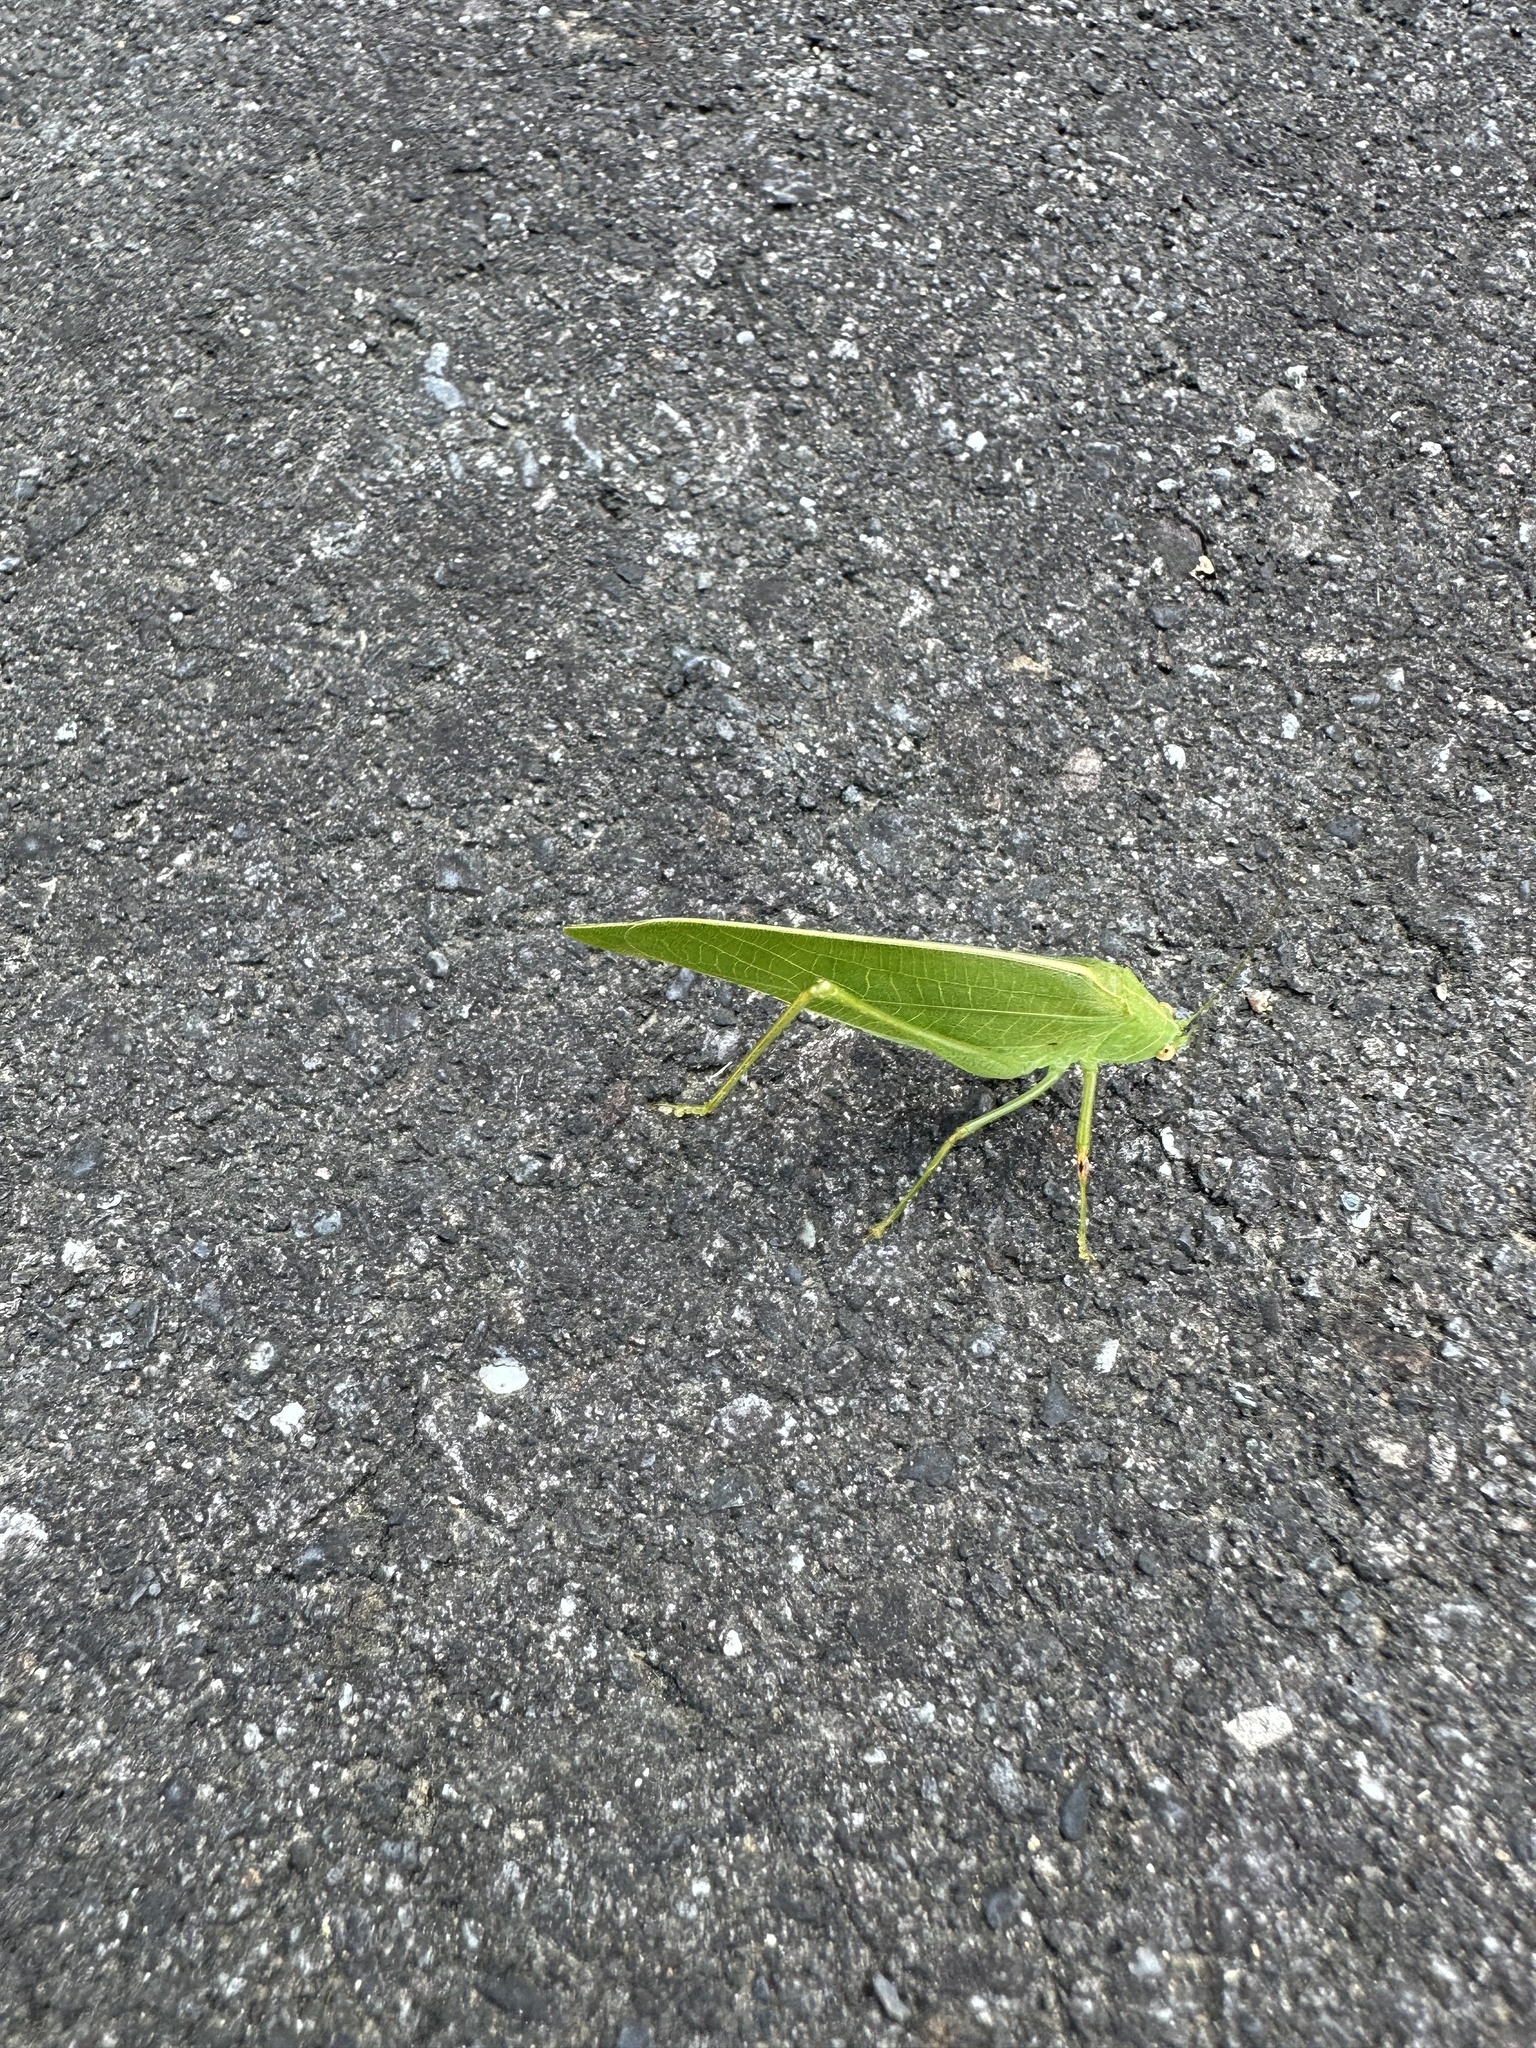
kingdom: Animalia
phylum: Arthropoda
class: Insecta
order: Orthoptera
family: Tettigoniidae
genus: Phaulula
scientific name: Phaulula macilenta
